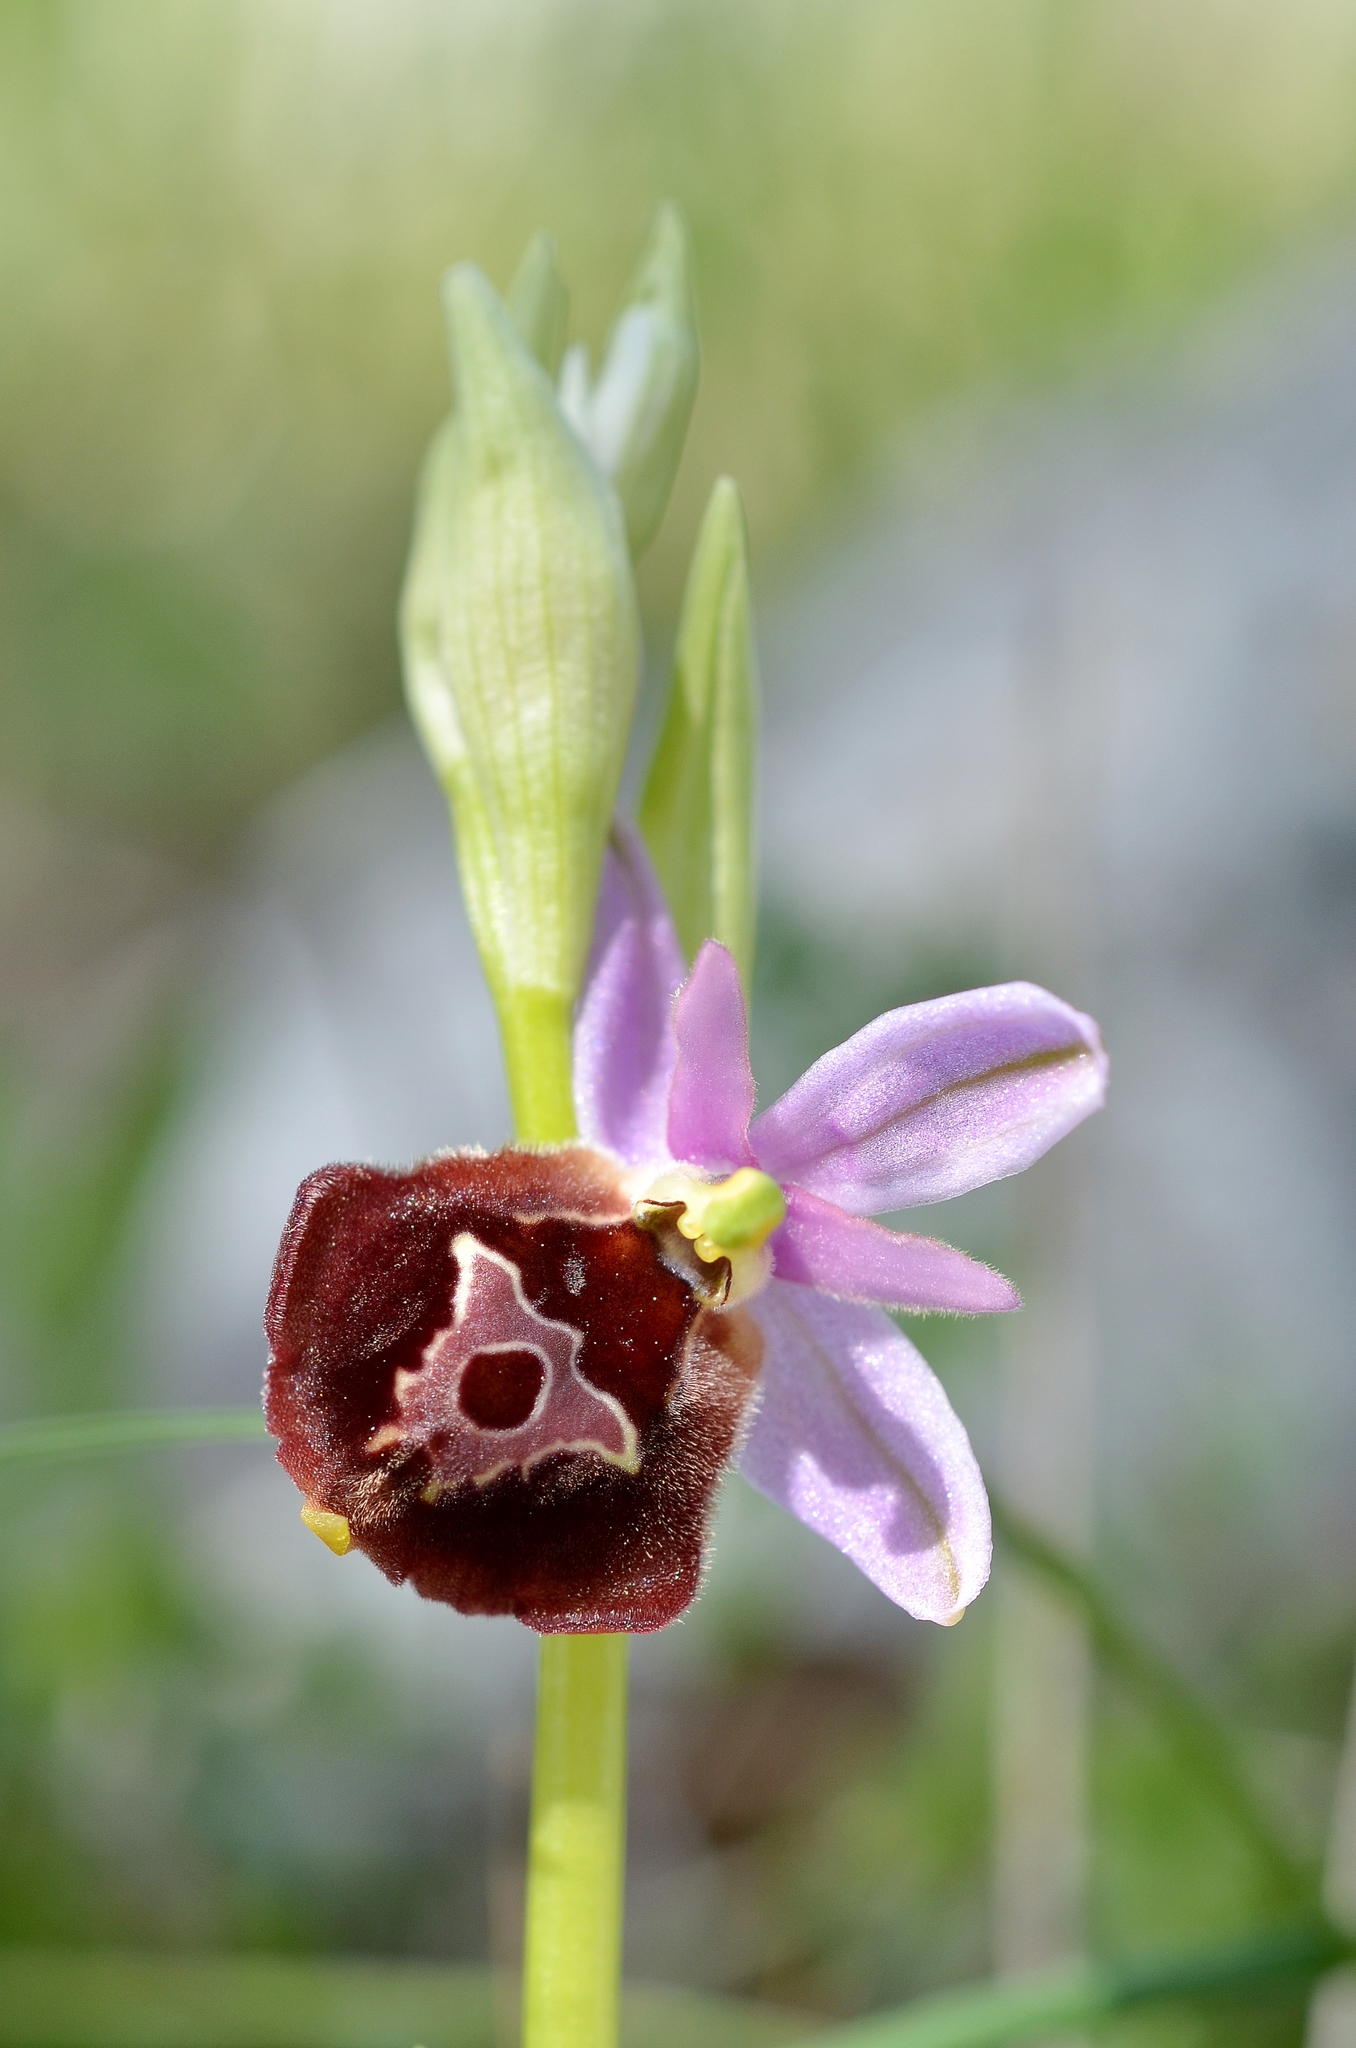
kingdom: Plantae
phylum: Tracheophyta
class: Liliopsida
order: Asparagales
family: Orchidaceae
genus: Ophrys
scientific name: Ophrys argolica
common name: Argolic ophrys
